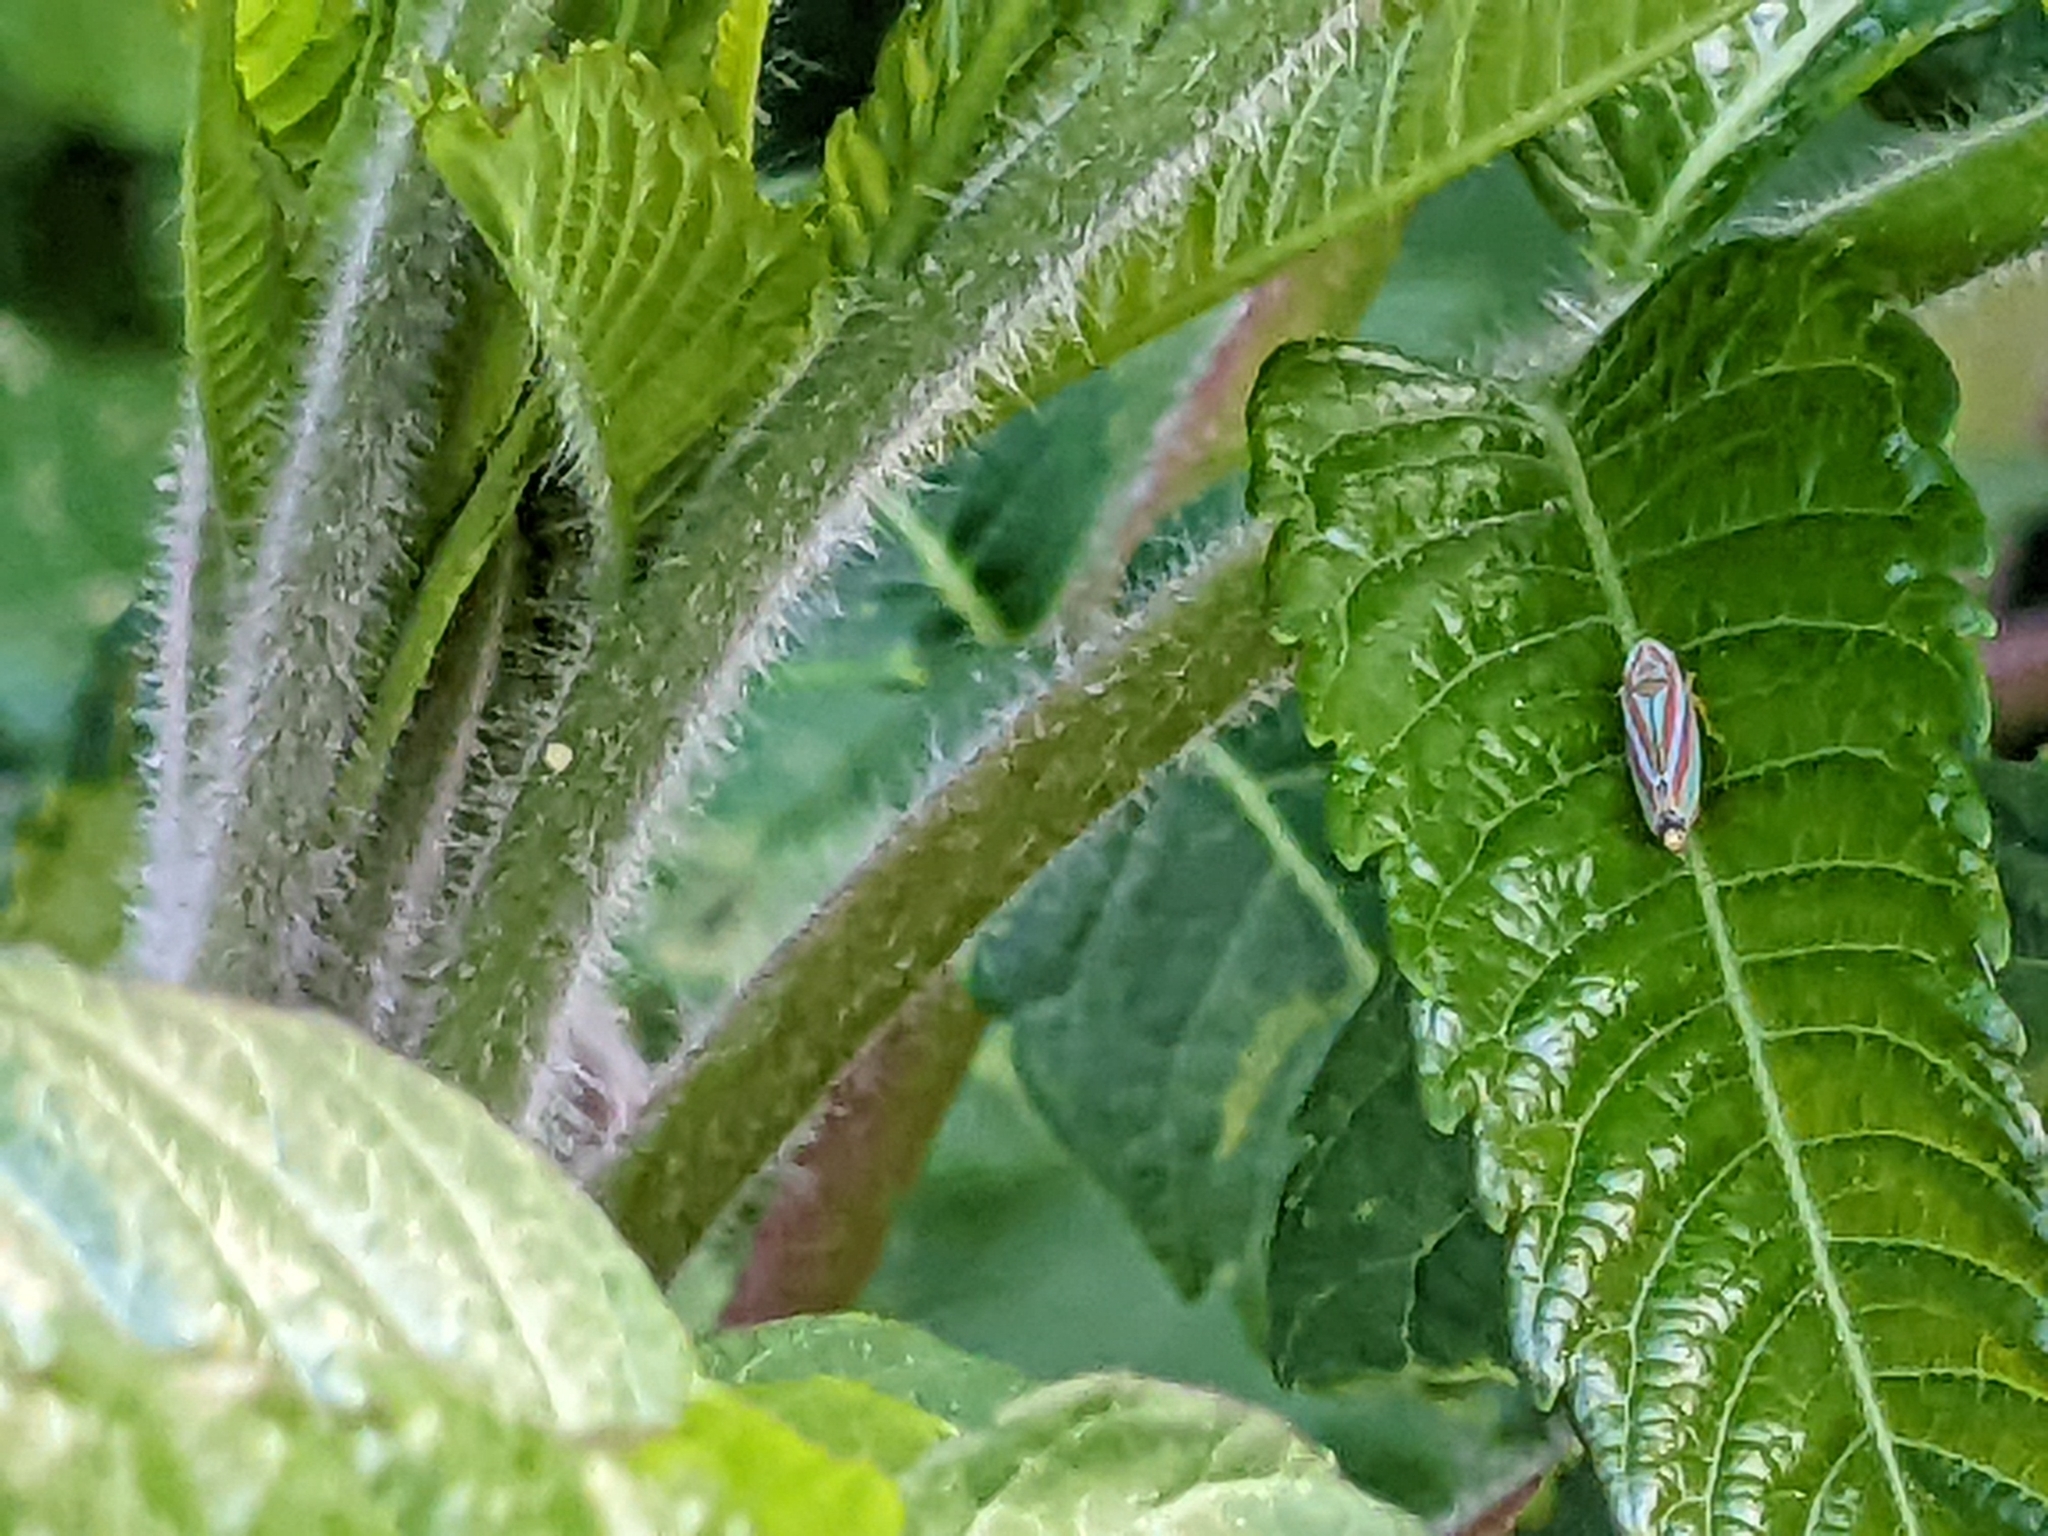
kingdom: Animalia
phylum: Arthropoda
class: Insecta
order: Hemiptera
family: Cicadellidae
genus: Graphocephala
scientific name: Graphocephala versuta
